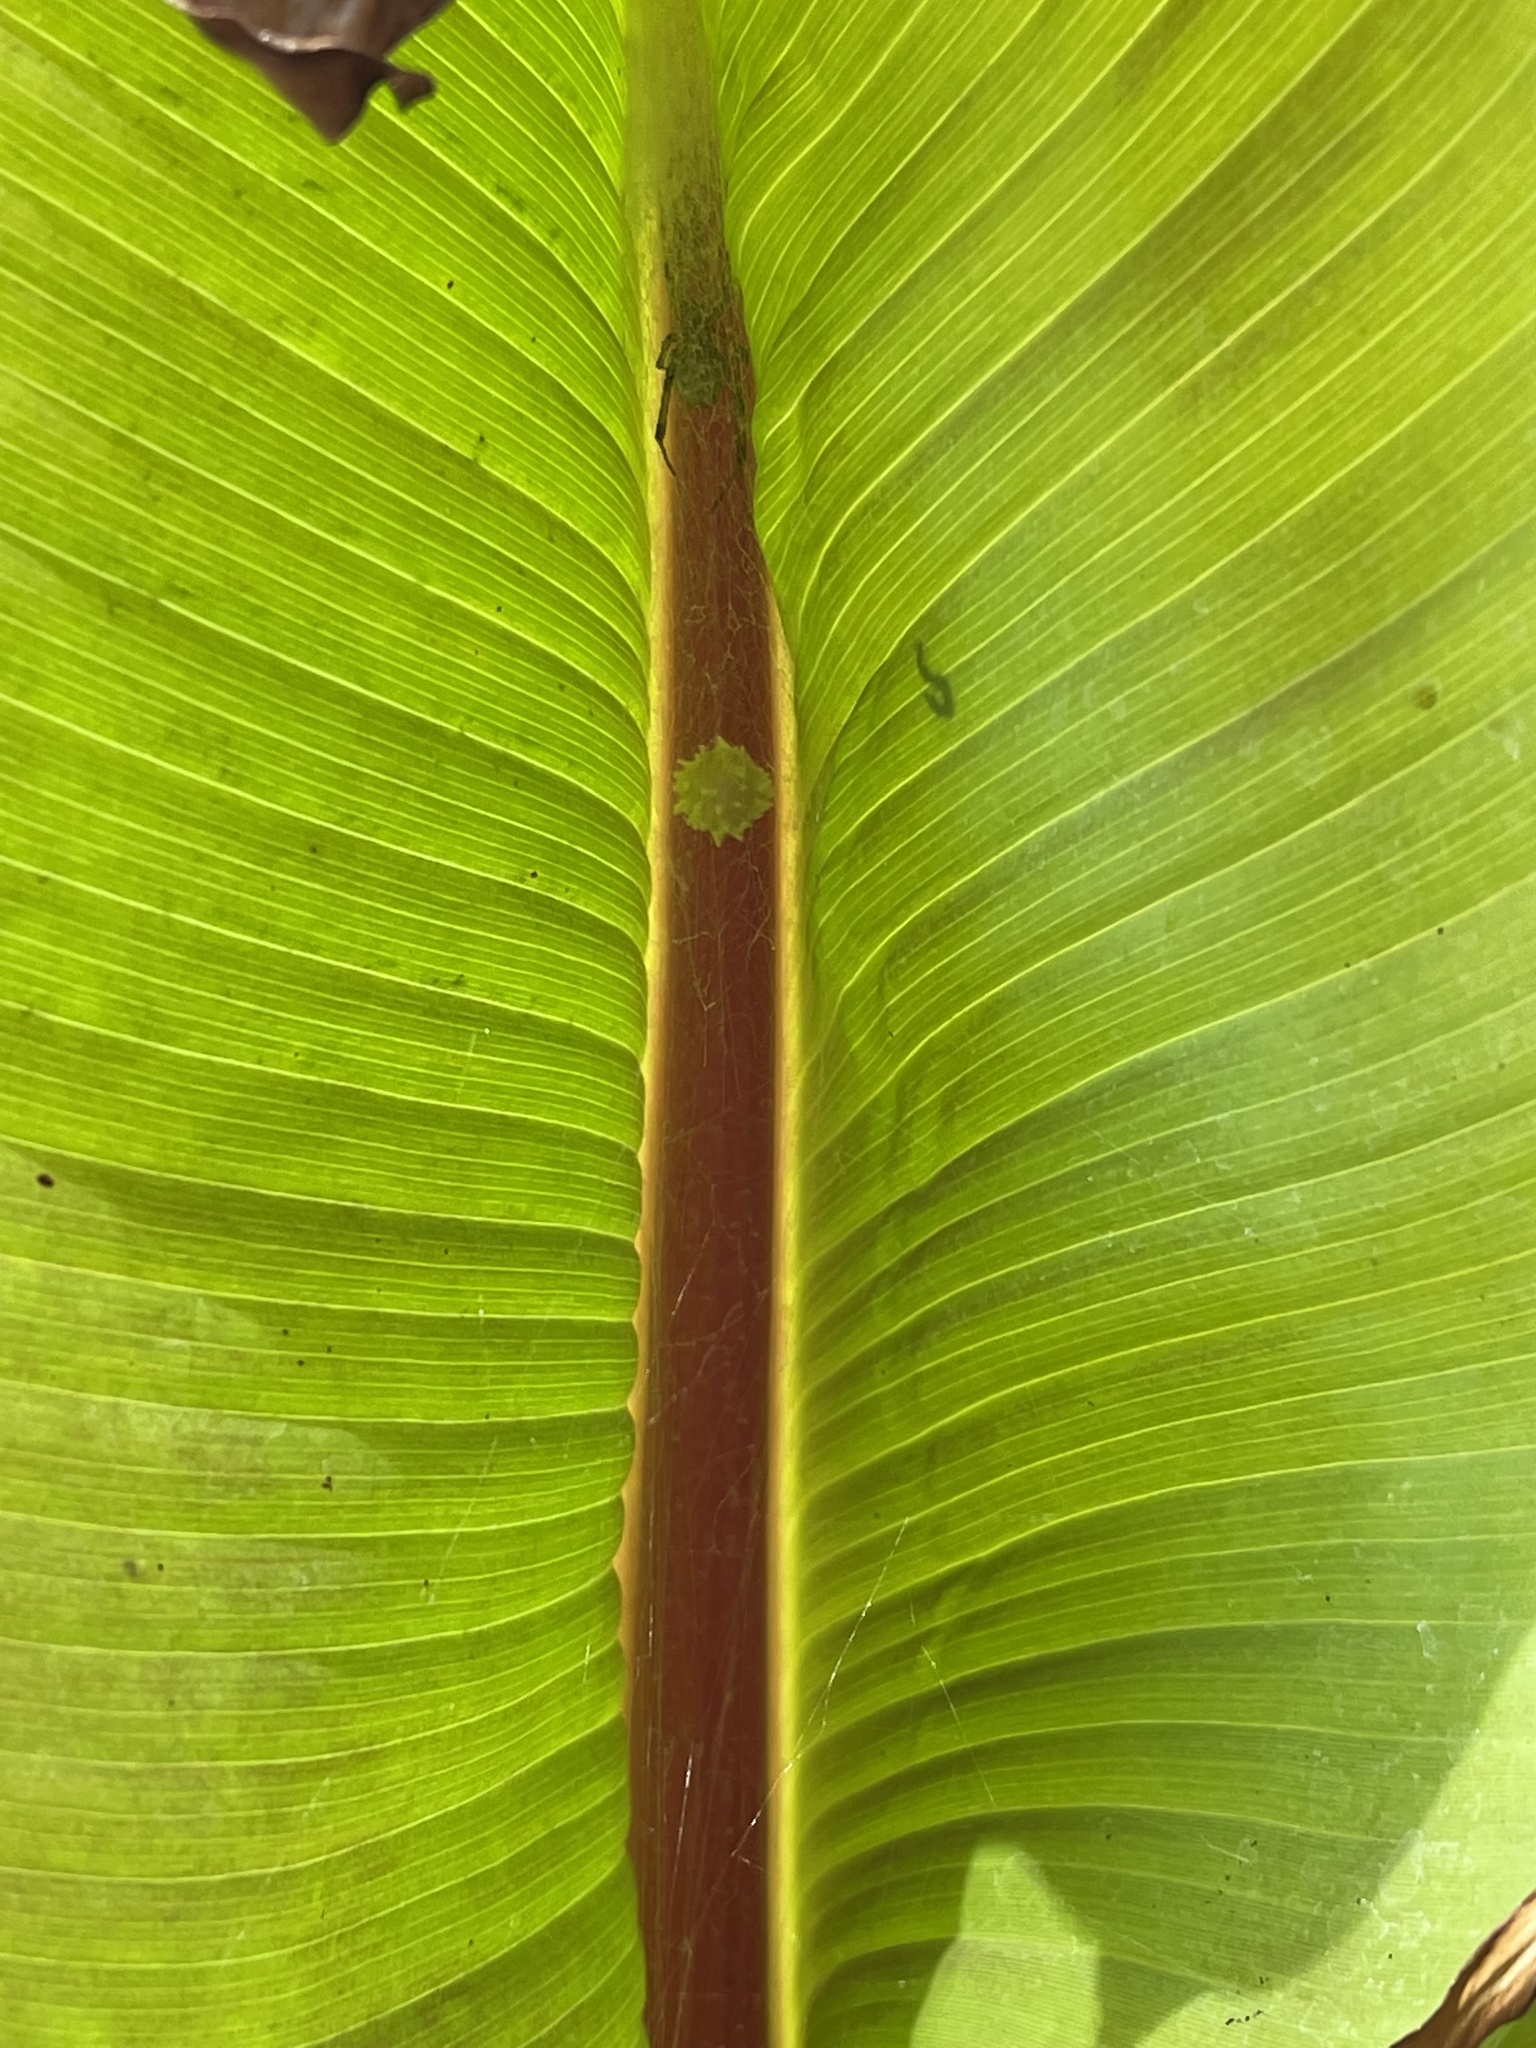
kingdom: Animalia
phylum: Arthropoda
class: Arachnida
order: Araneae
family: Theridiidae
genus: Latrodectus
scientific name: Latrodectus geometricus
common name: Brown widow spider
